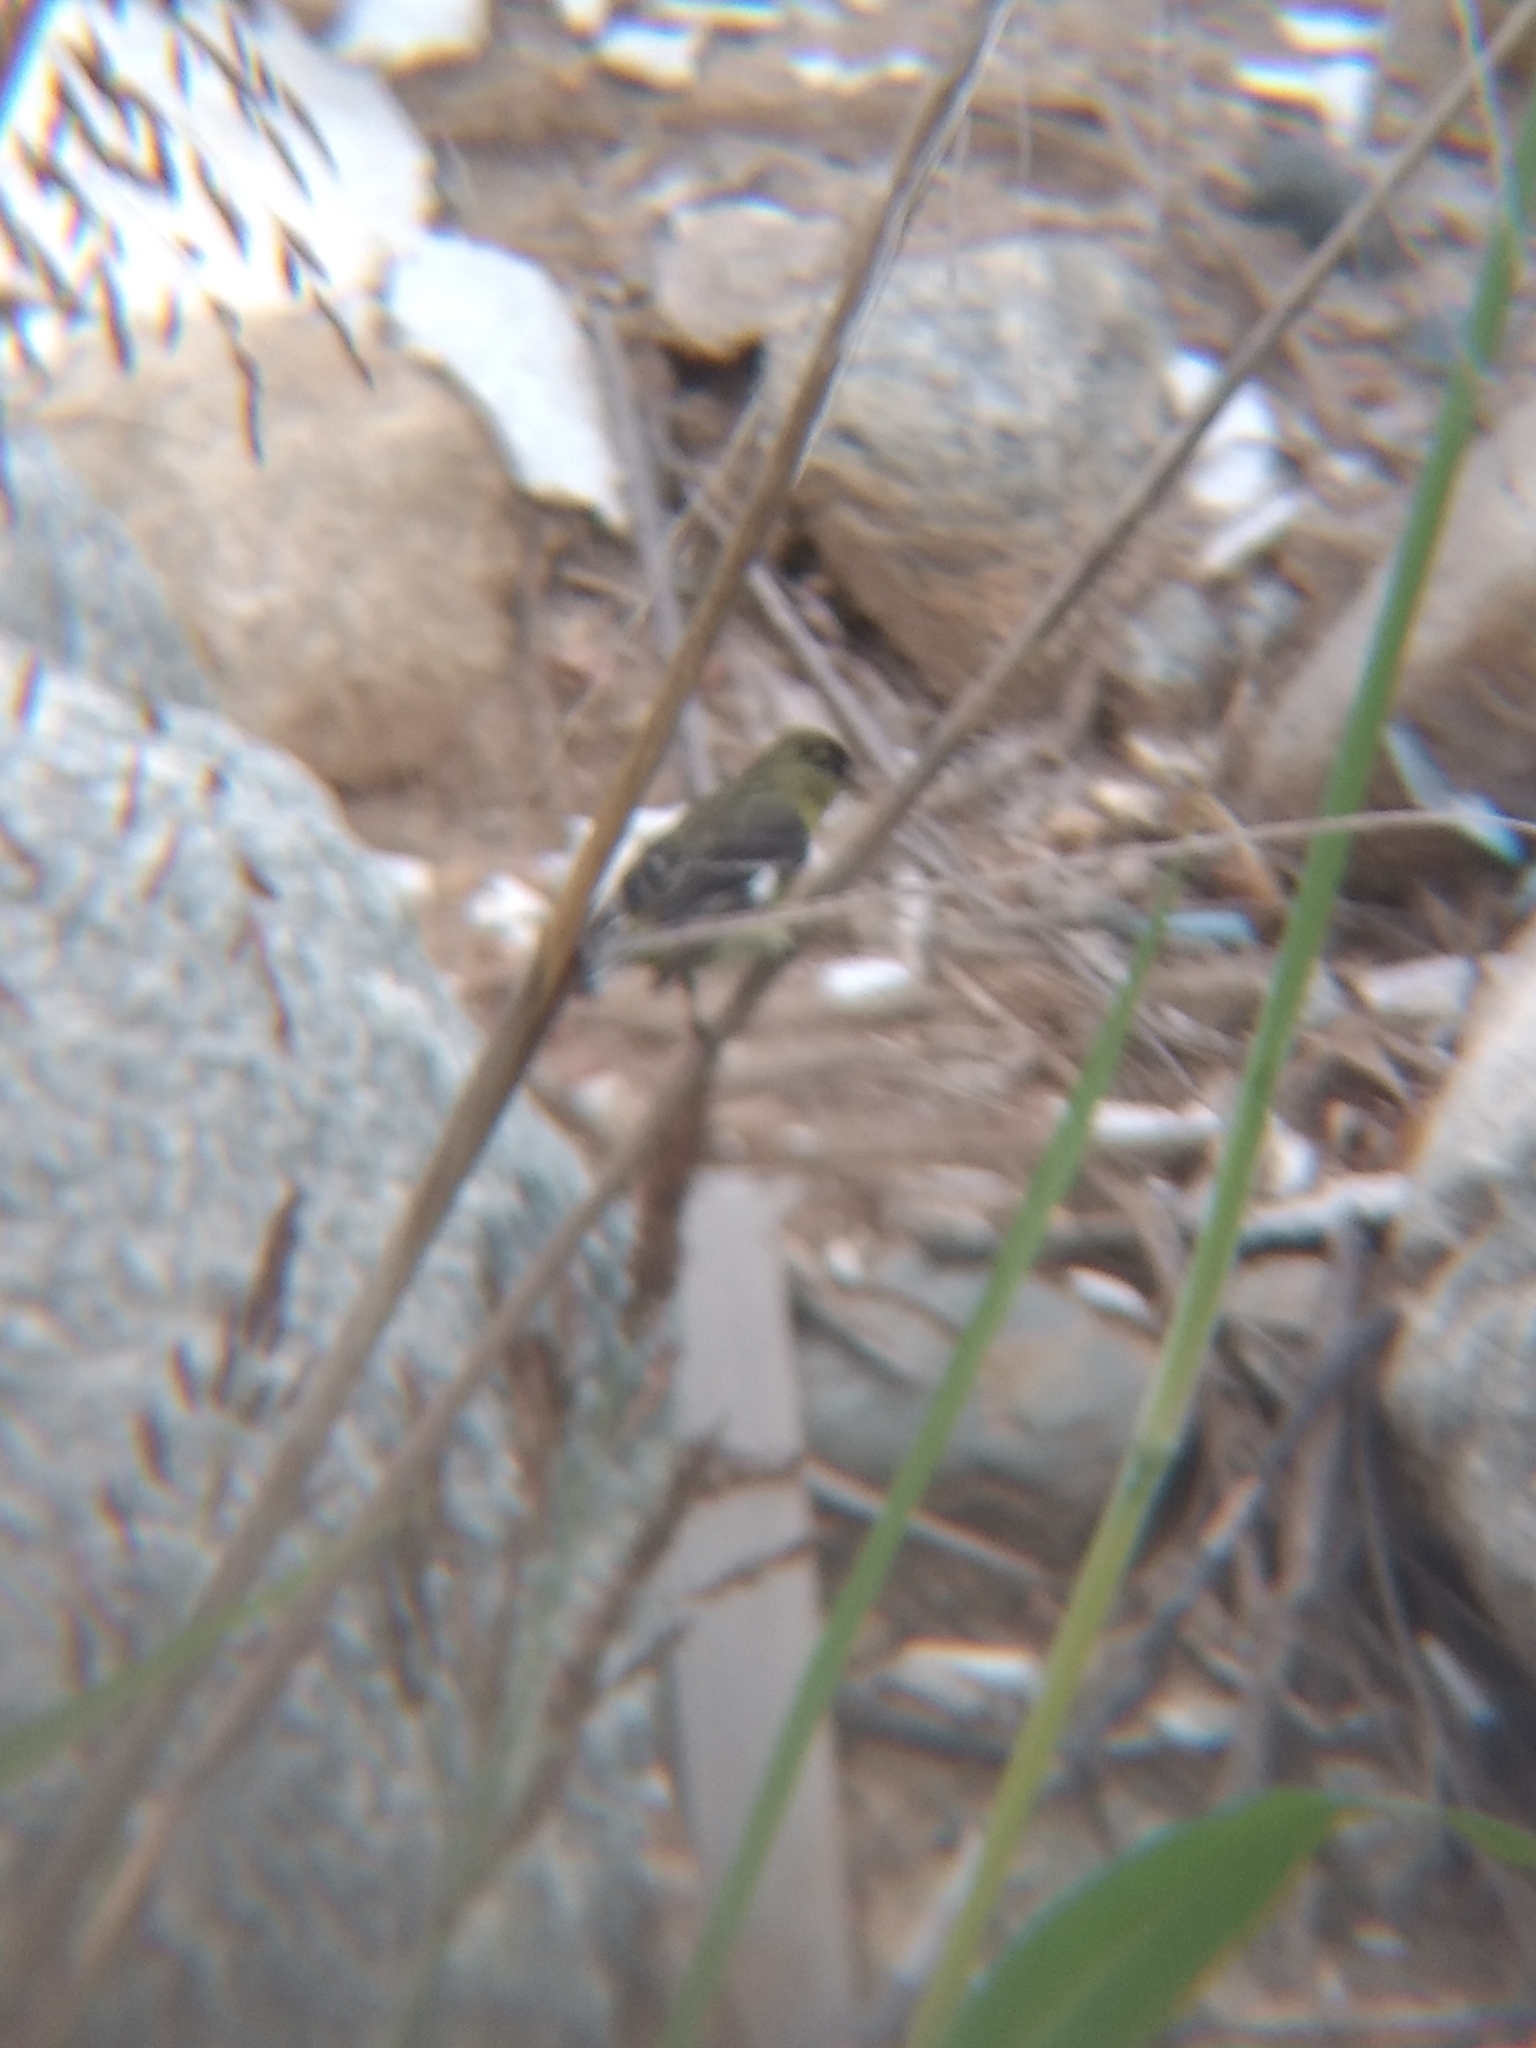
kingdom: Animalia
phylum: Chordata
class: Aves
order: Passeriformes
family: Fringillidae
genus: Spinus
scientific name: Spinus psaltria
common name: Lesser goldfinch
